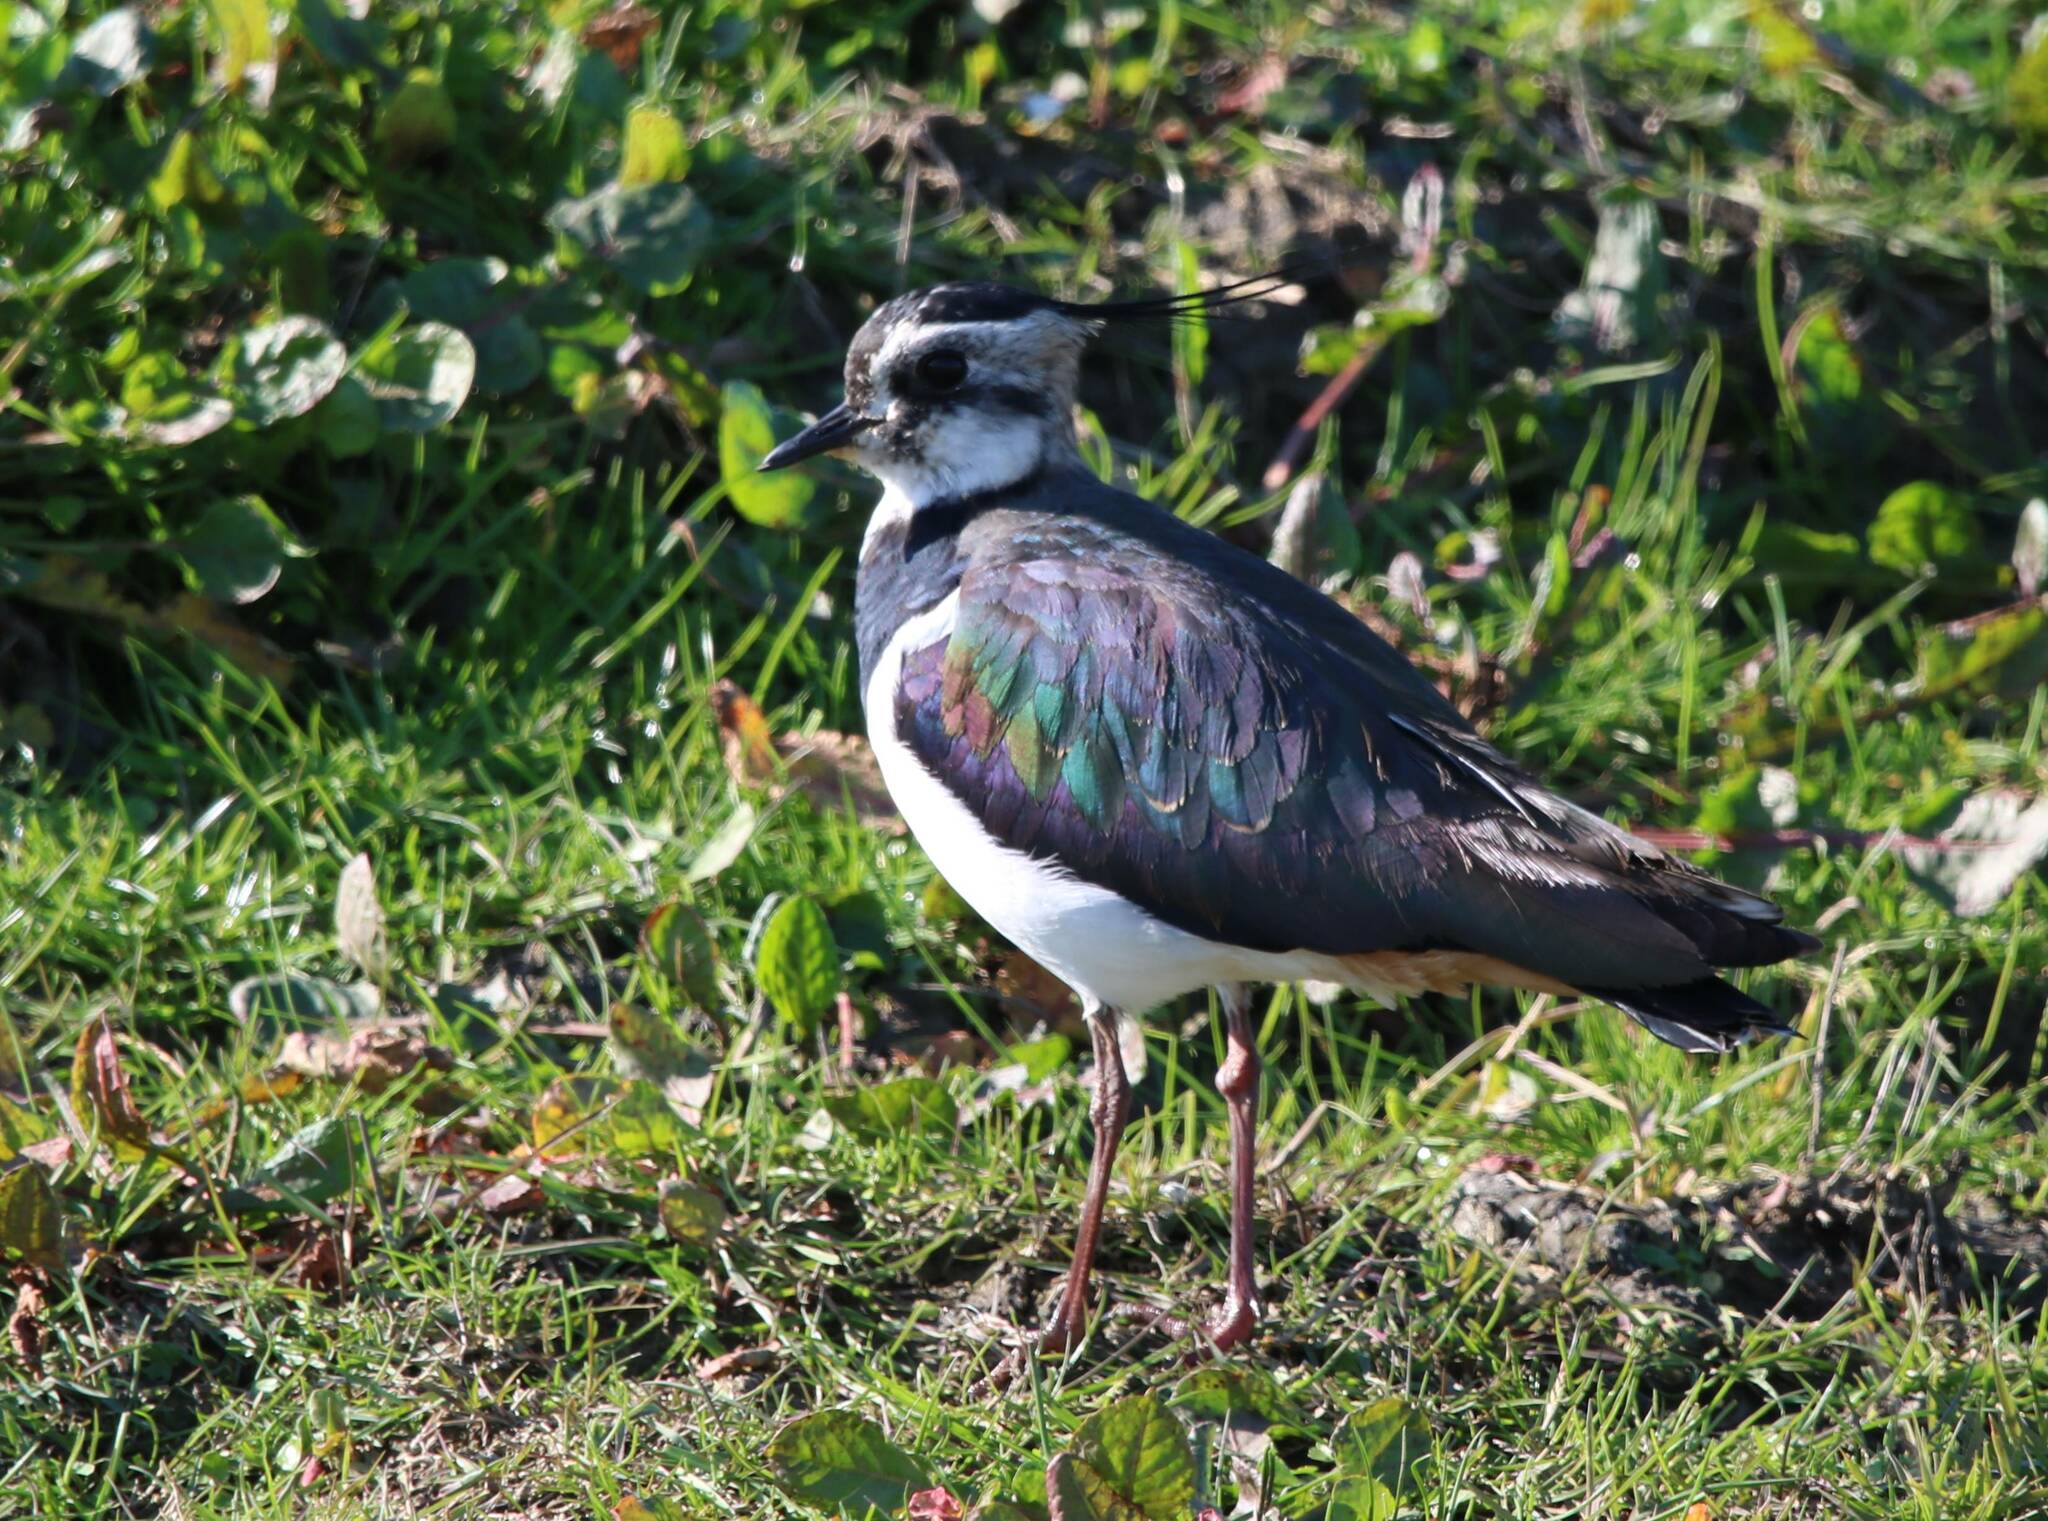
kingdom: Animalia
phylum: Chordata
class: Aves
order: Charadriiformes
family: Charadriidae
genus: Vanellus
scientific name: Vanellus vanellus
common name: Northern lapwing
